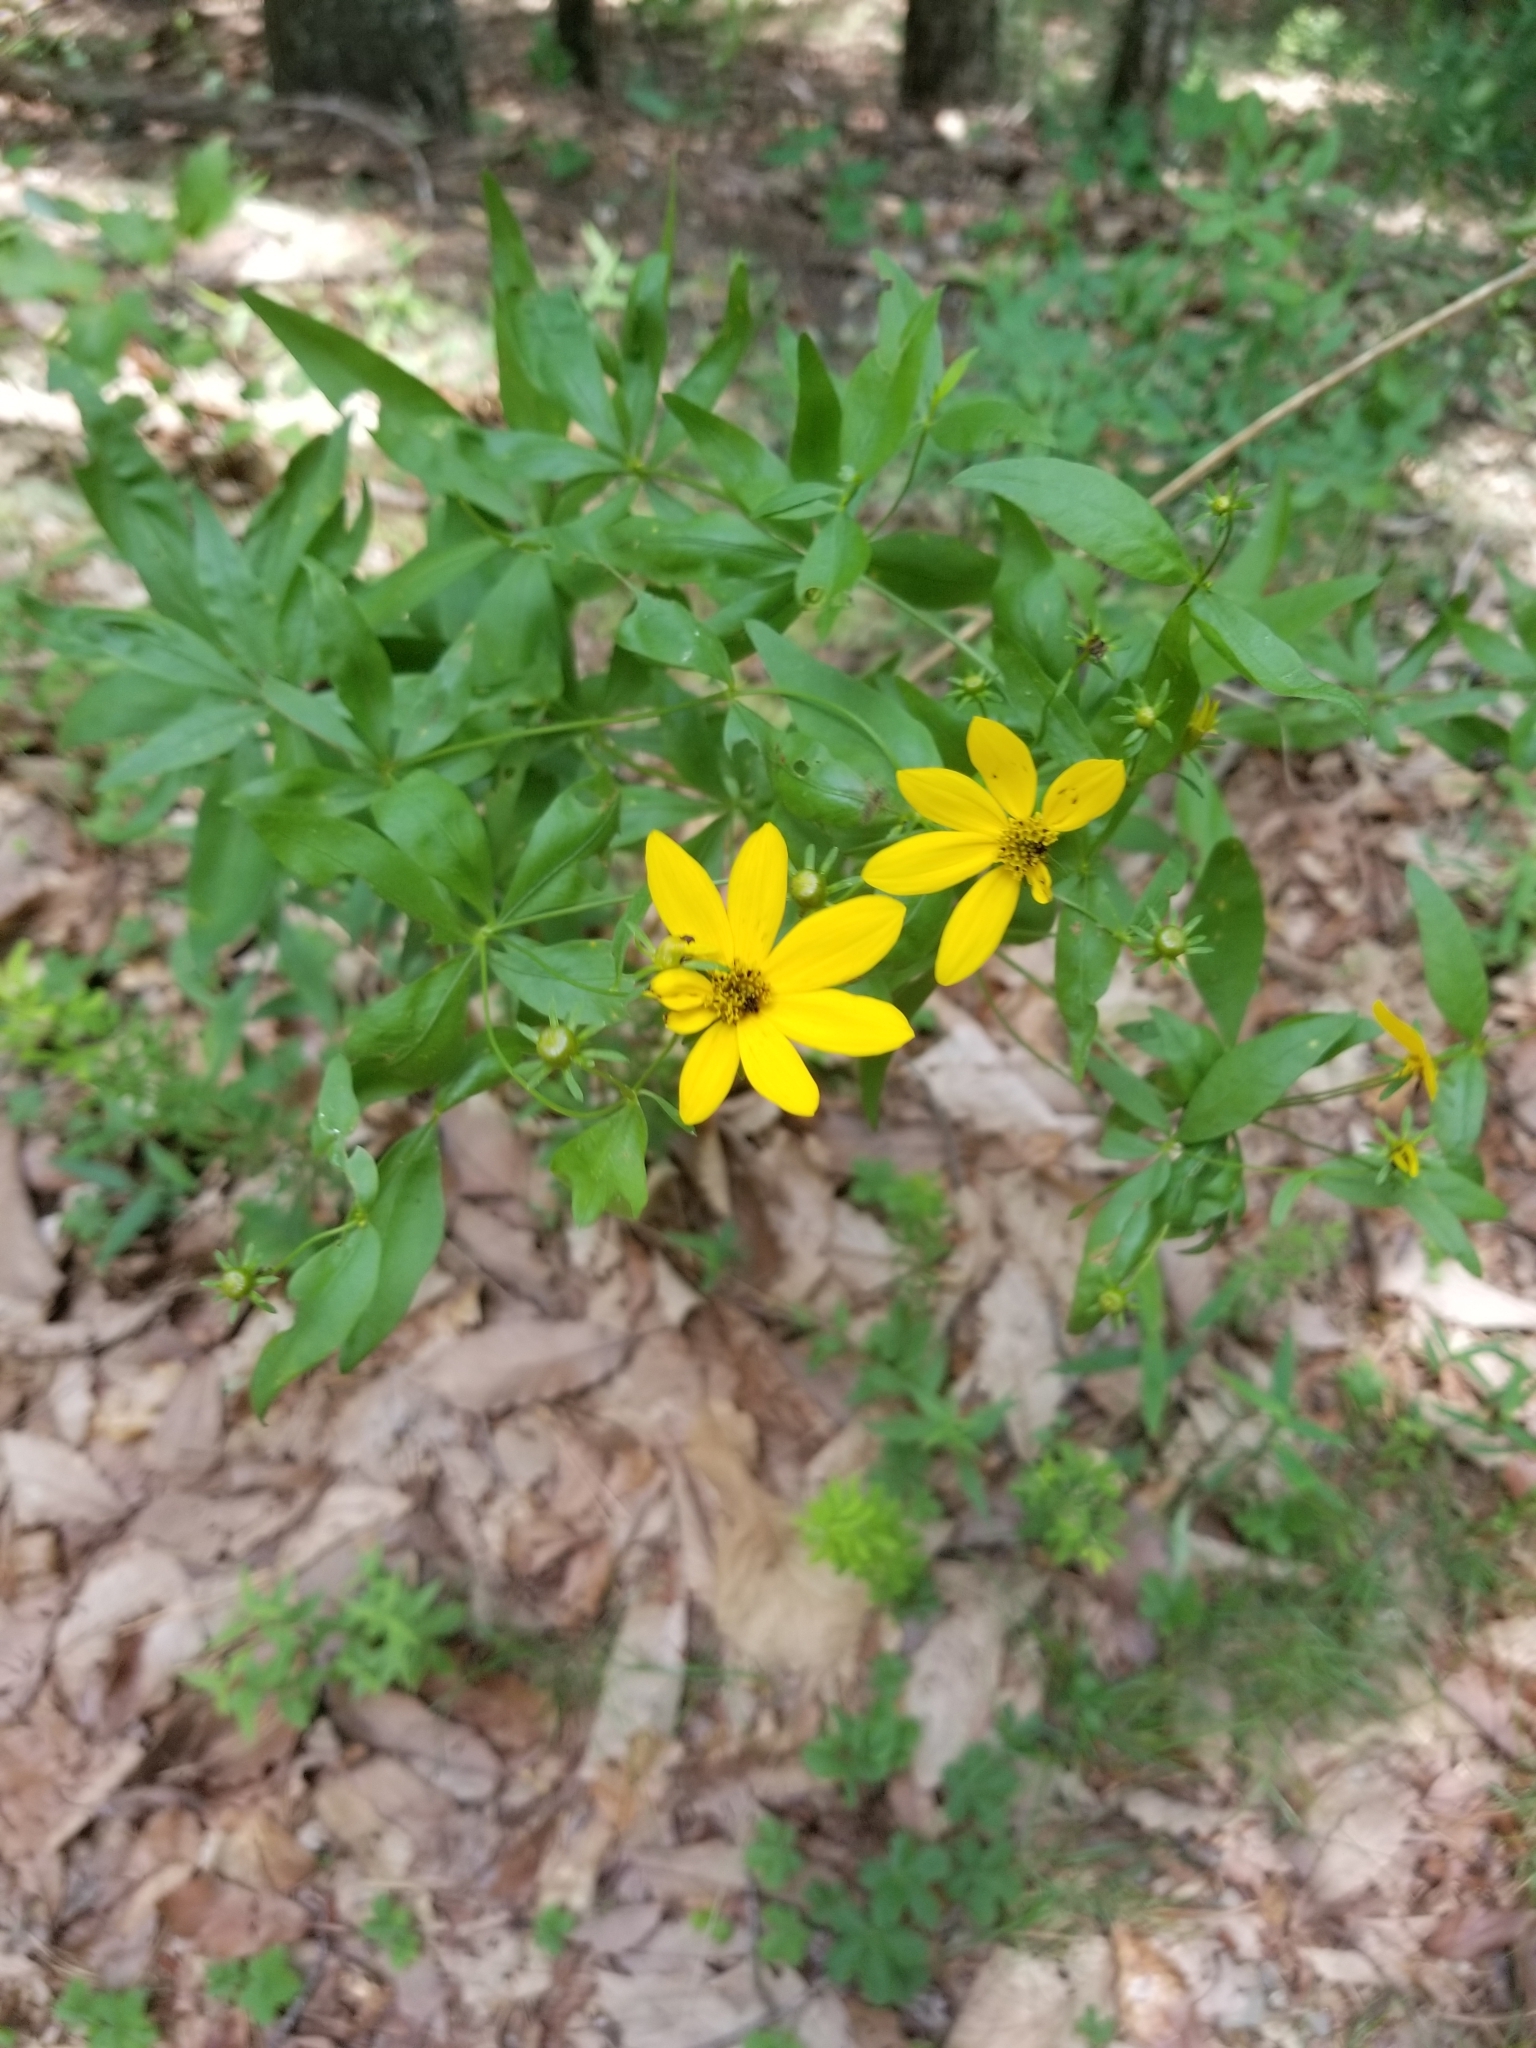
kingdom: Plantae
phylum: Tracheophyta
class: Magnoliopsida
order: Asterales
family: Asteraceae
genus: Coreopsis
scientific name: Coreopsis major
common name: Forest tickseed
